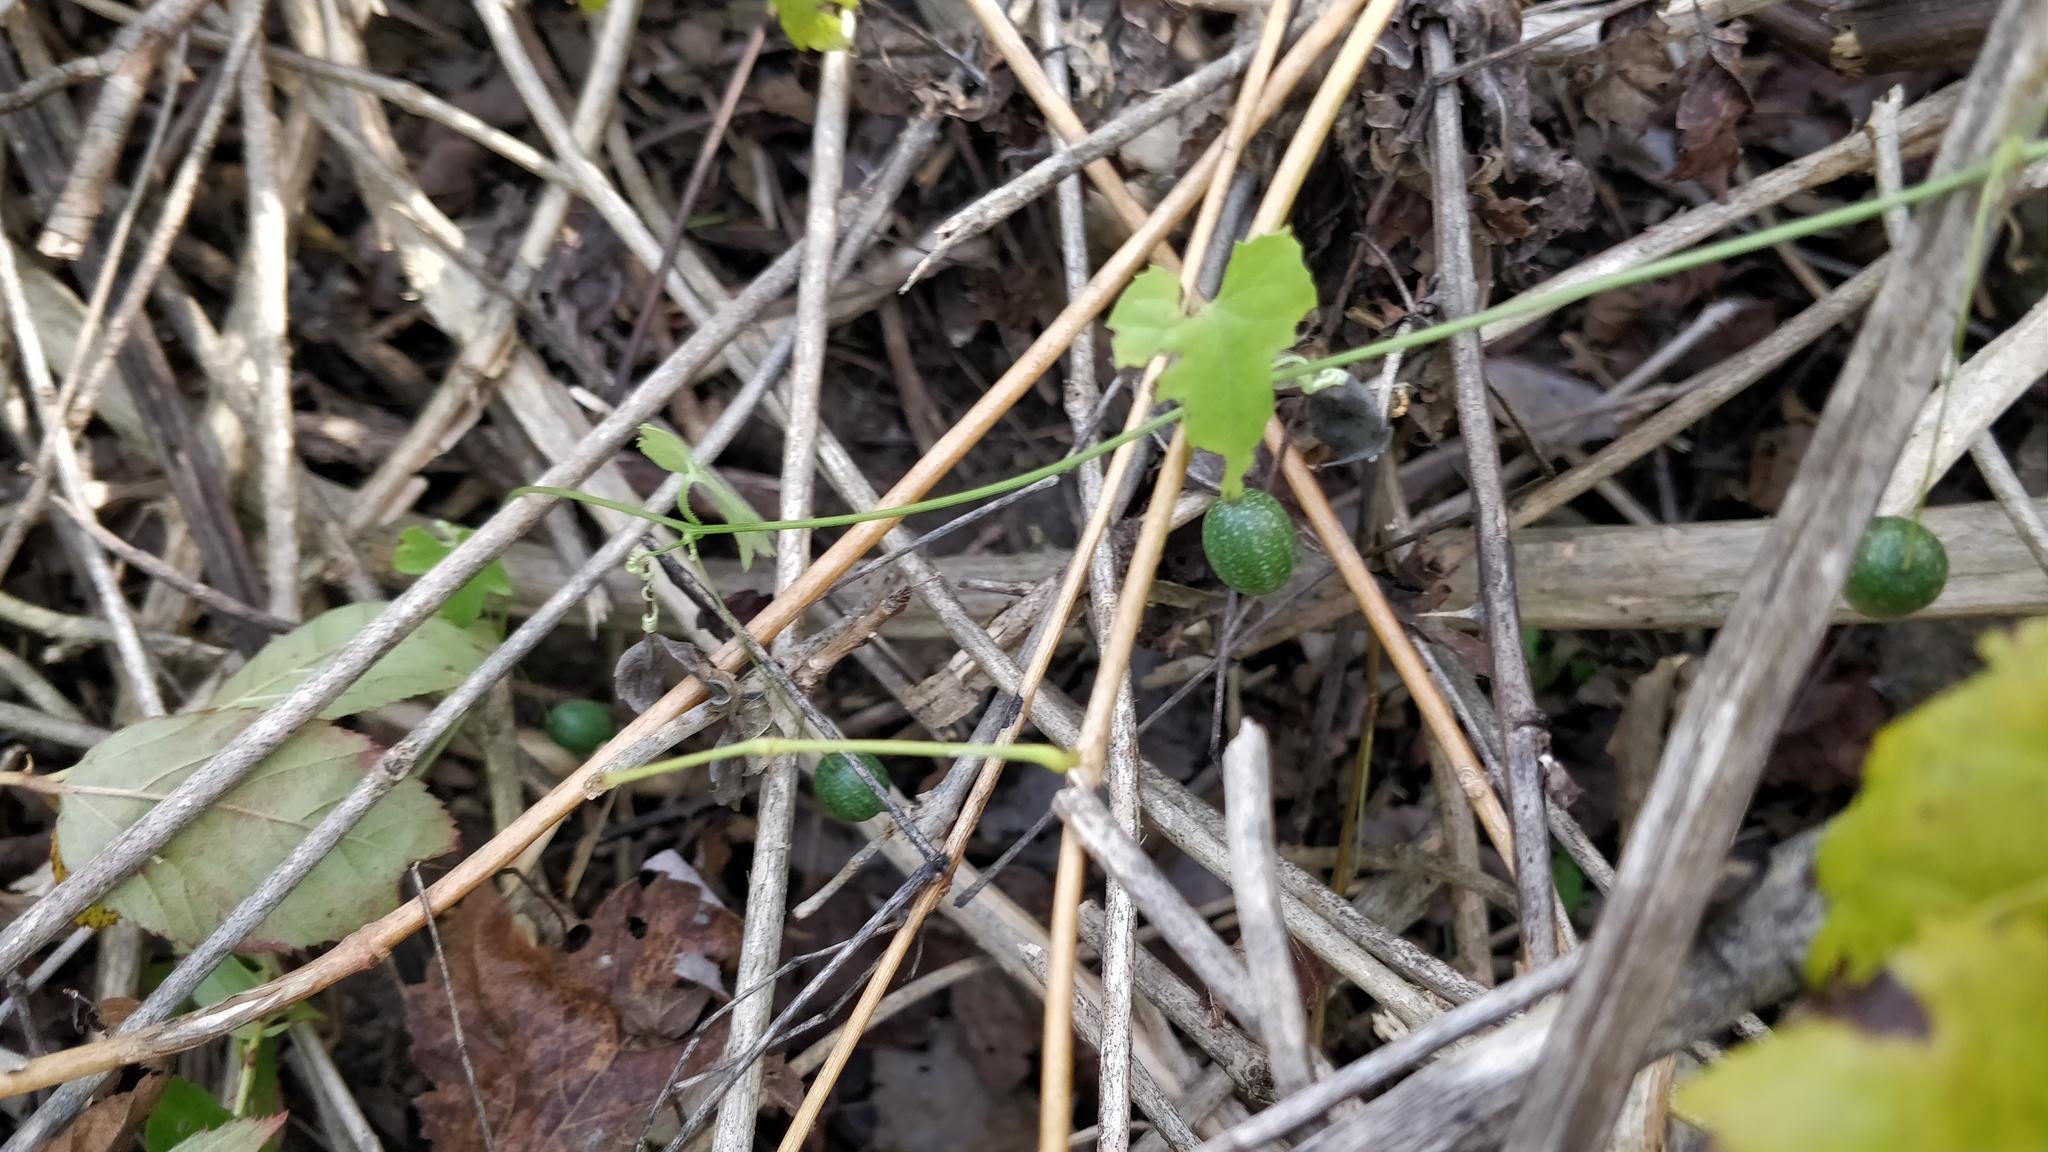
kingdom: Plantae
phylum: Tracheophyta
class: Magnoliopsida
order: Cucurbitales
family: Cucurbitaceae
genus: Melothria
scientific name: Melothria pendula
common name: Creeping-cucumber
